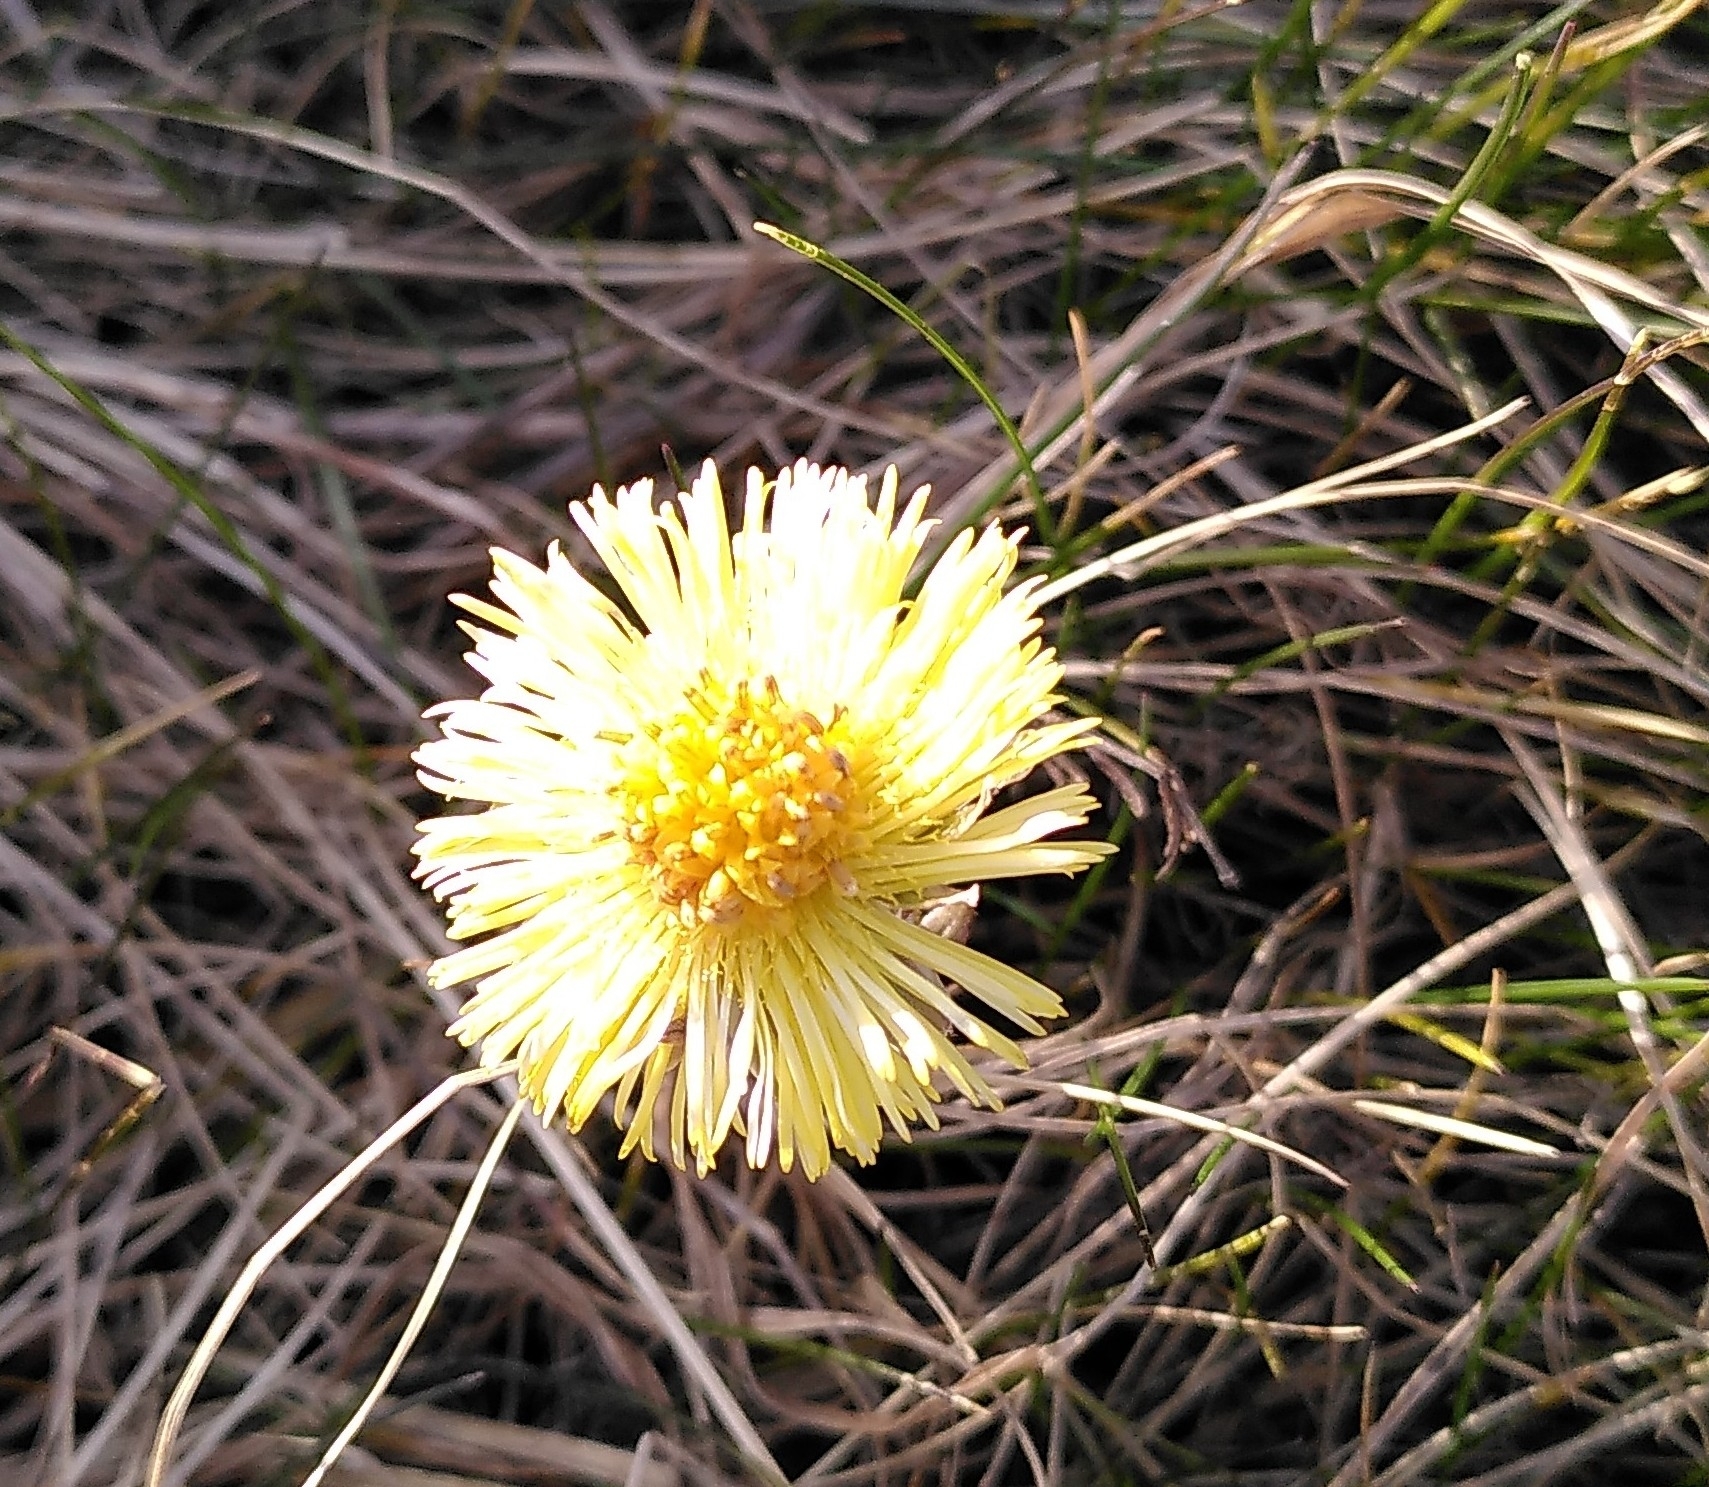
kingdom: Plantae
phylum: Tracheophyta
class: Magnoliopsida
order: Asterales
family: Asteraceae
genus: Tussilago
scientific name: Tussilago farfara
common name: Coltsfoot
